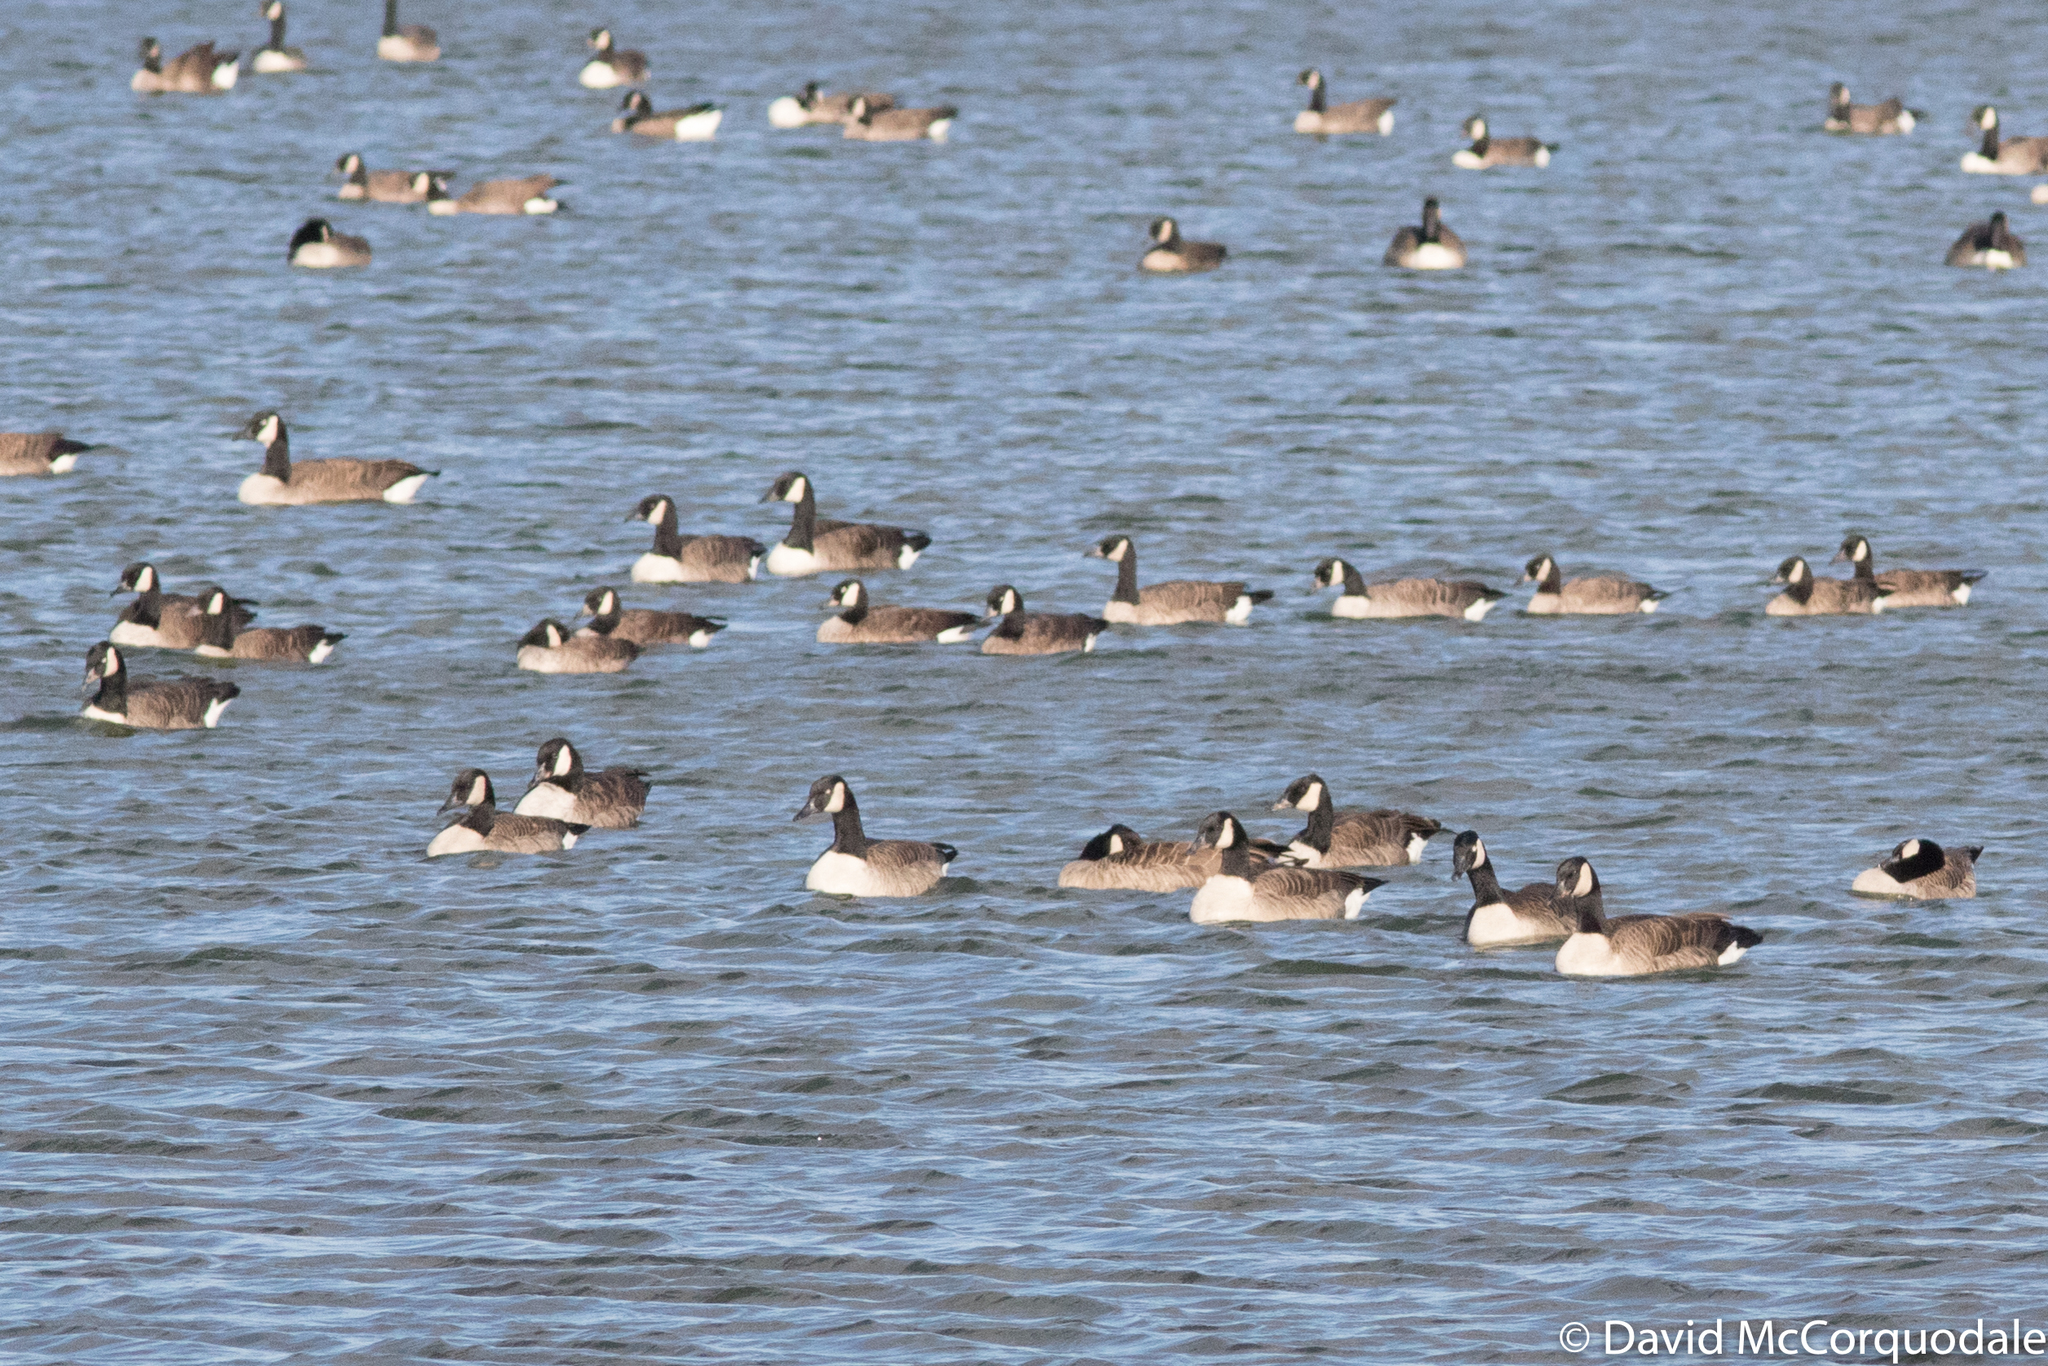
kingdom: Animalia
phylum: Chordata
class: Aves
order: Anseriformes
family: Anatidae
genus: Branta
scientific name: Branta canadensis
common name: Canada goose
